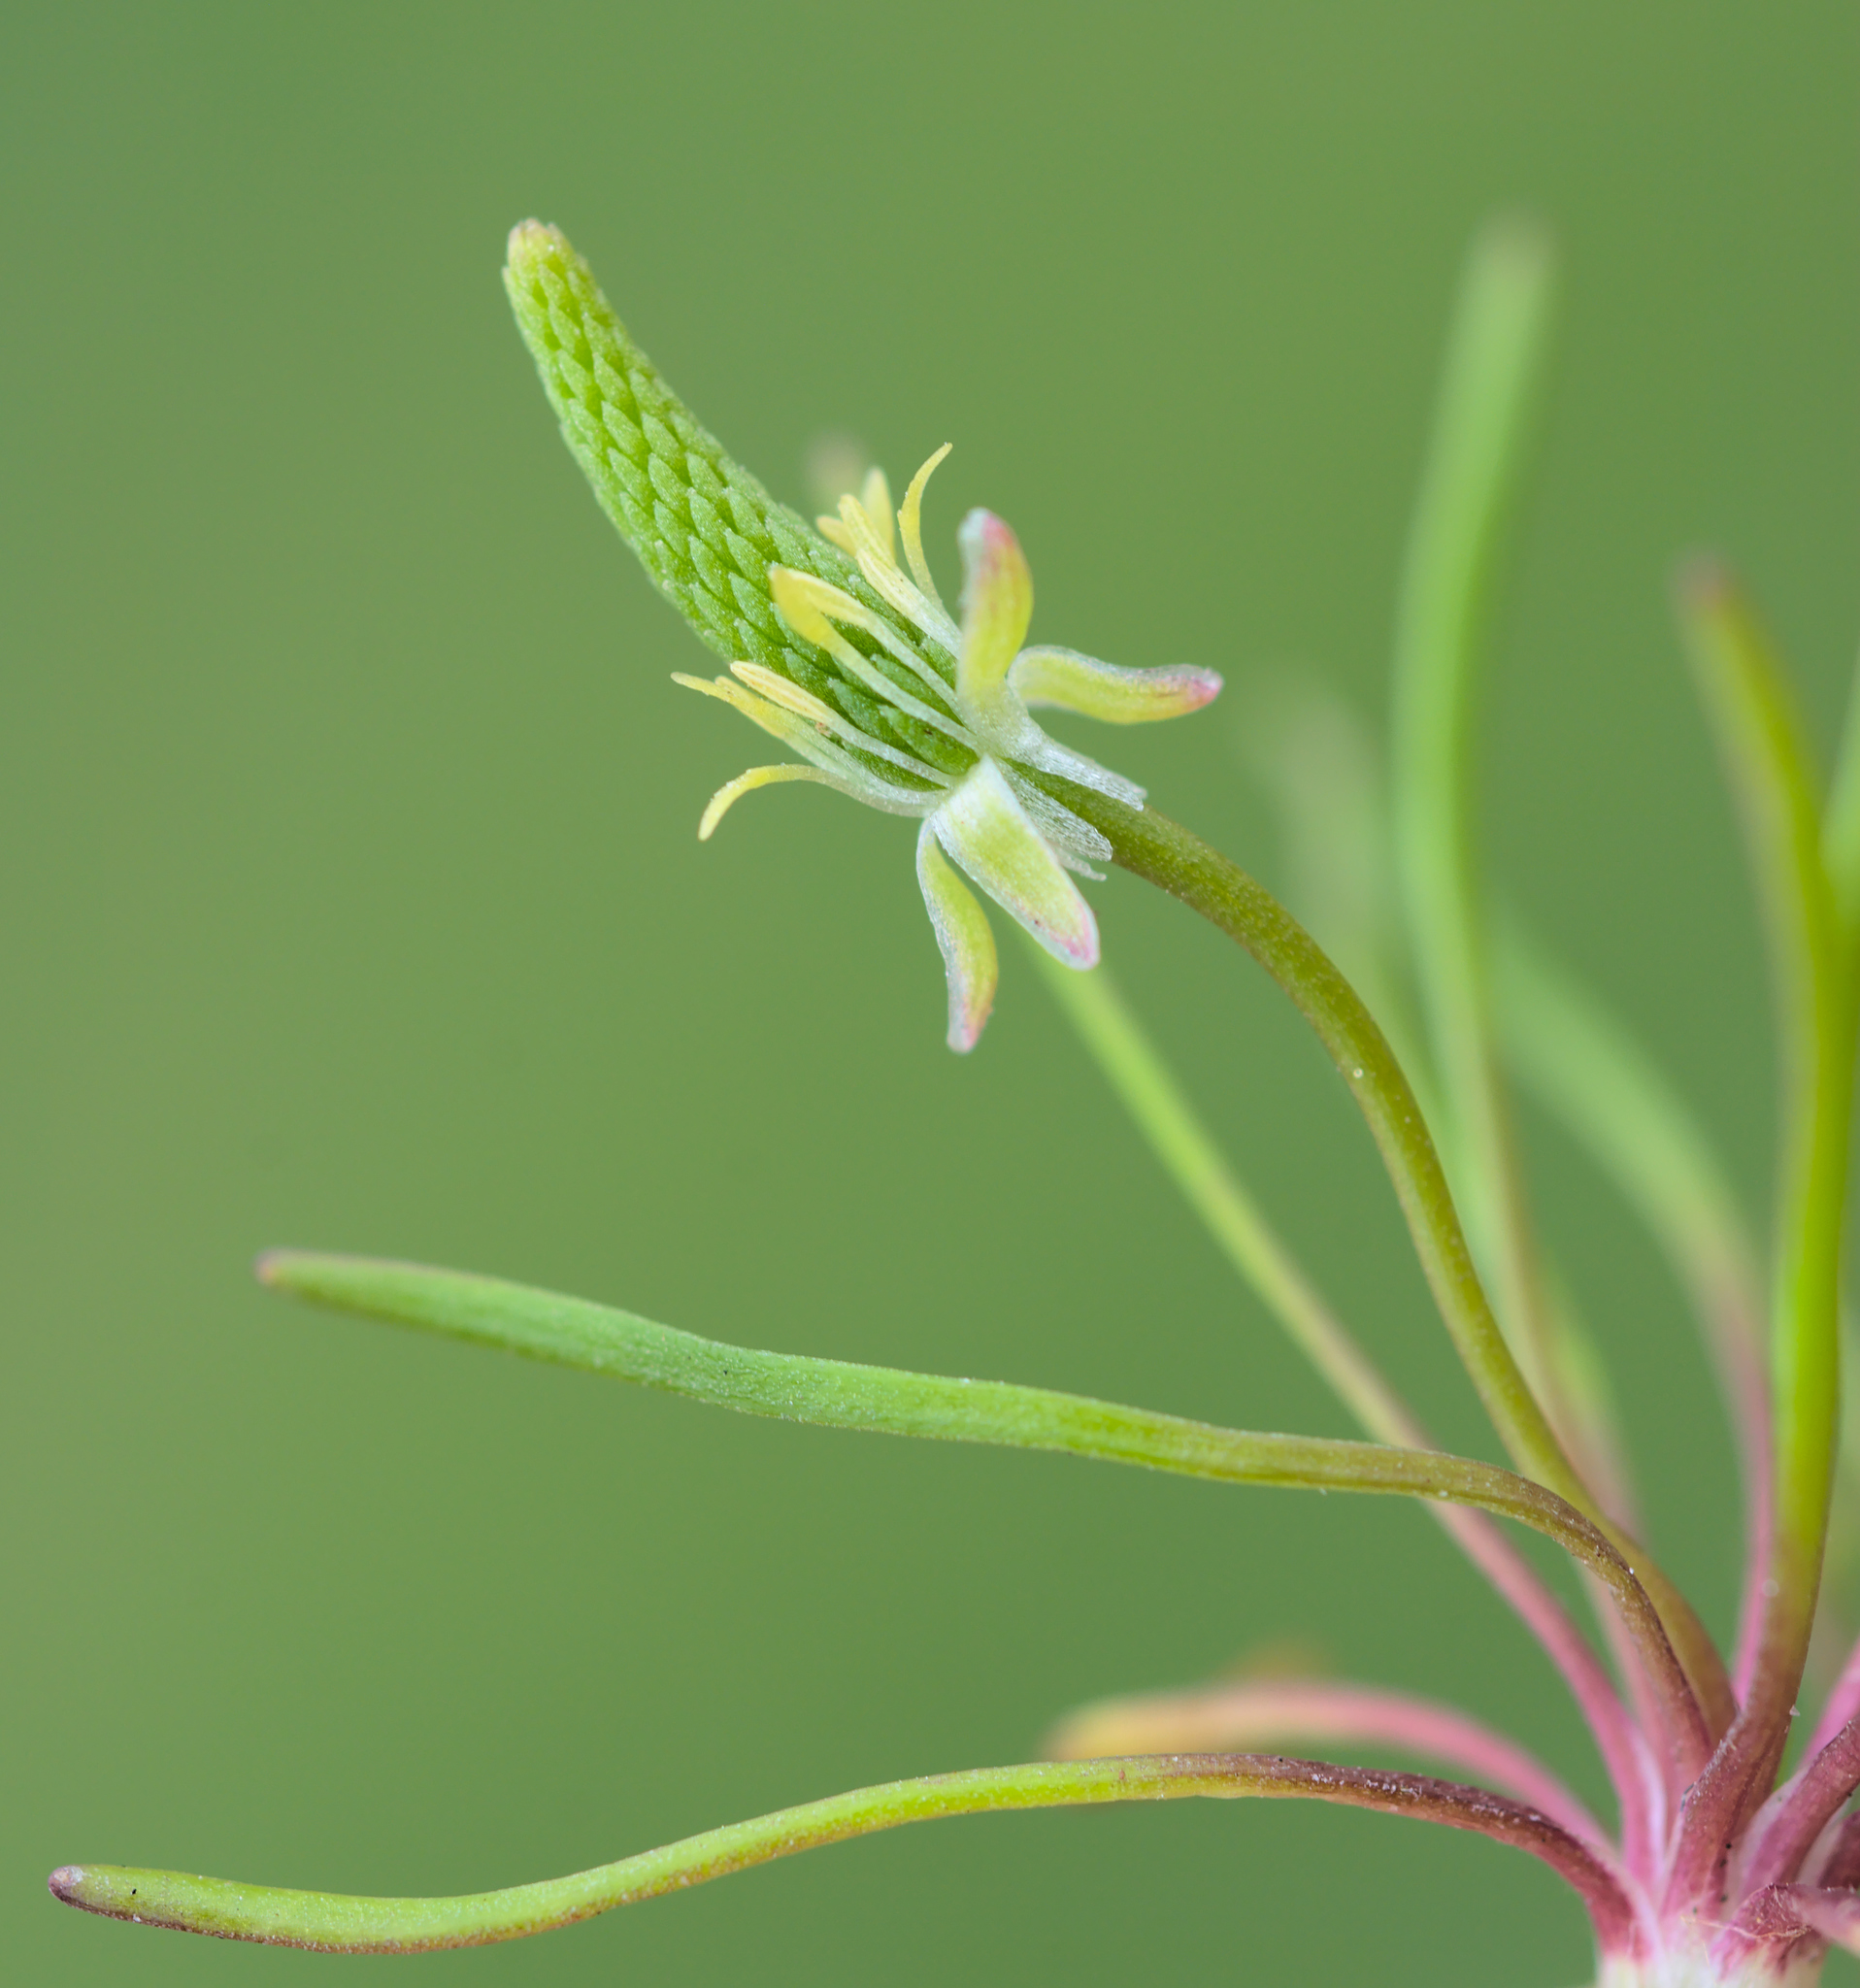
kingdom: Plantae
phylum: Tracheophyta
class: Magnoliopsida
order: Ranunculales
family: Ranunculaceae
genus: Myosurus
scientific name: Myosurus minimus
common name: Mousetail
